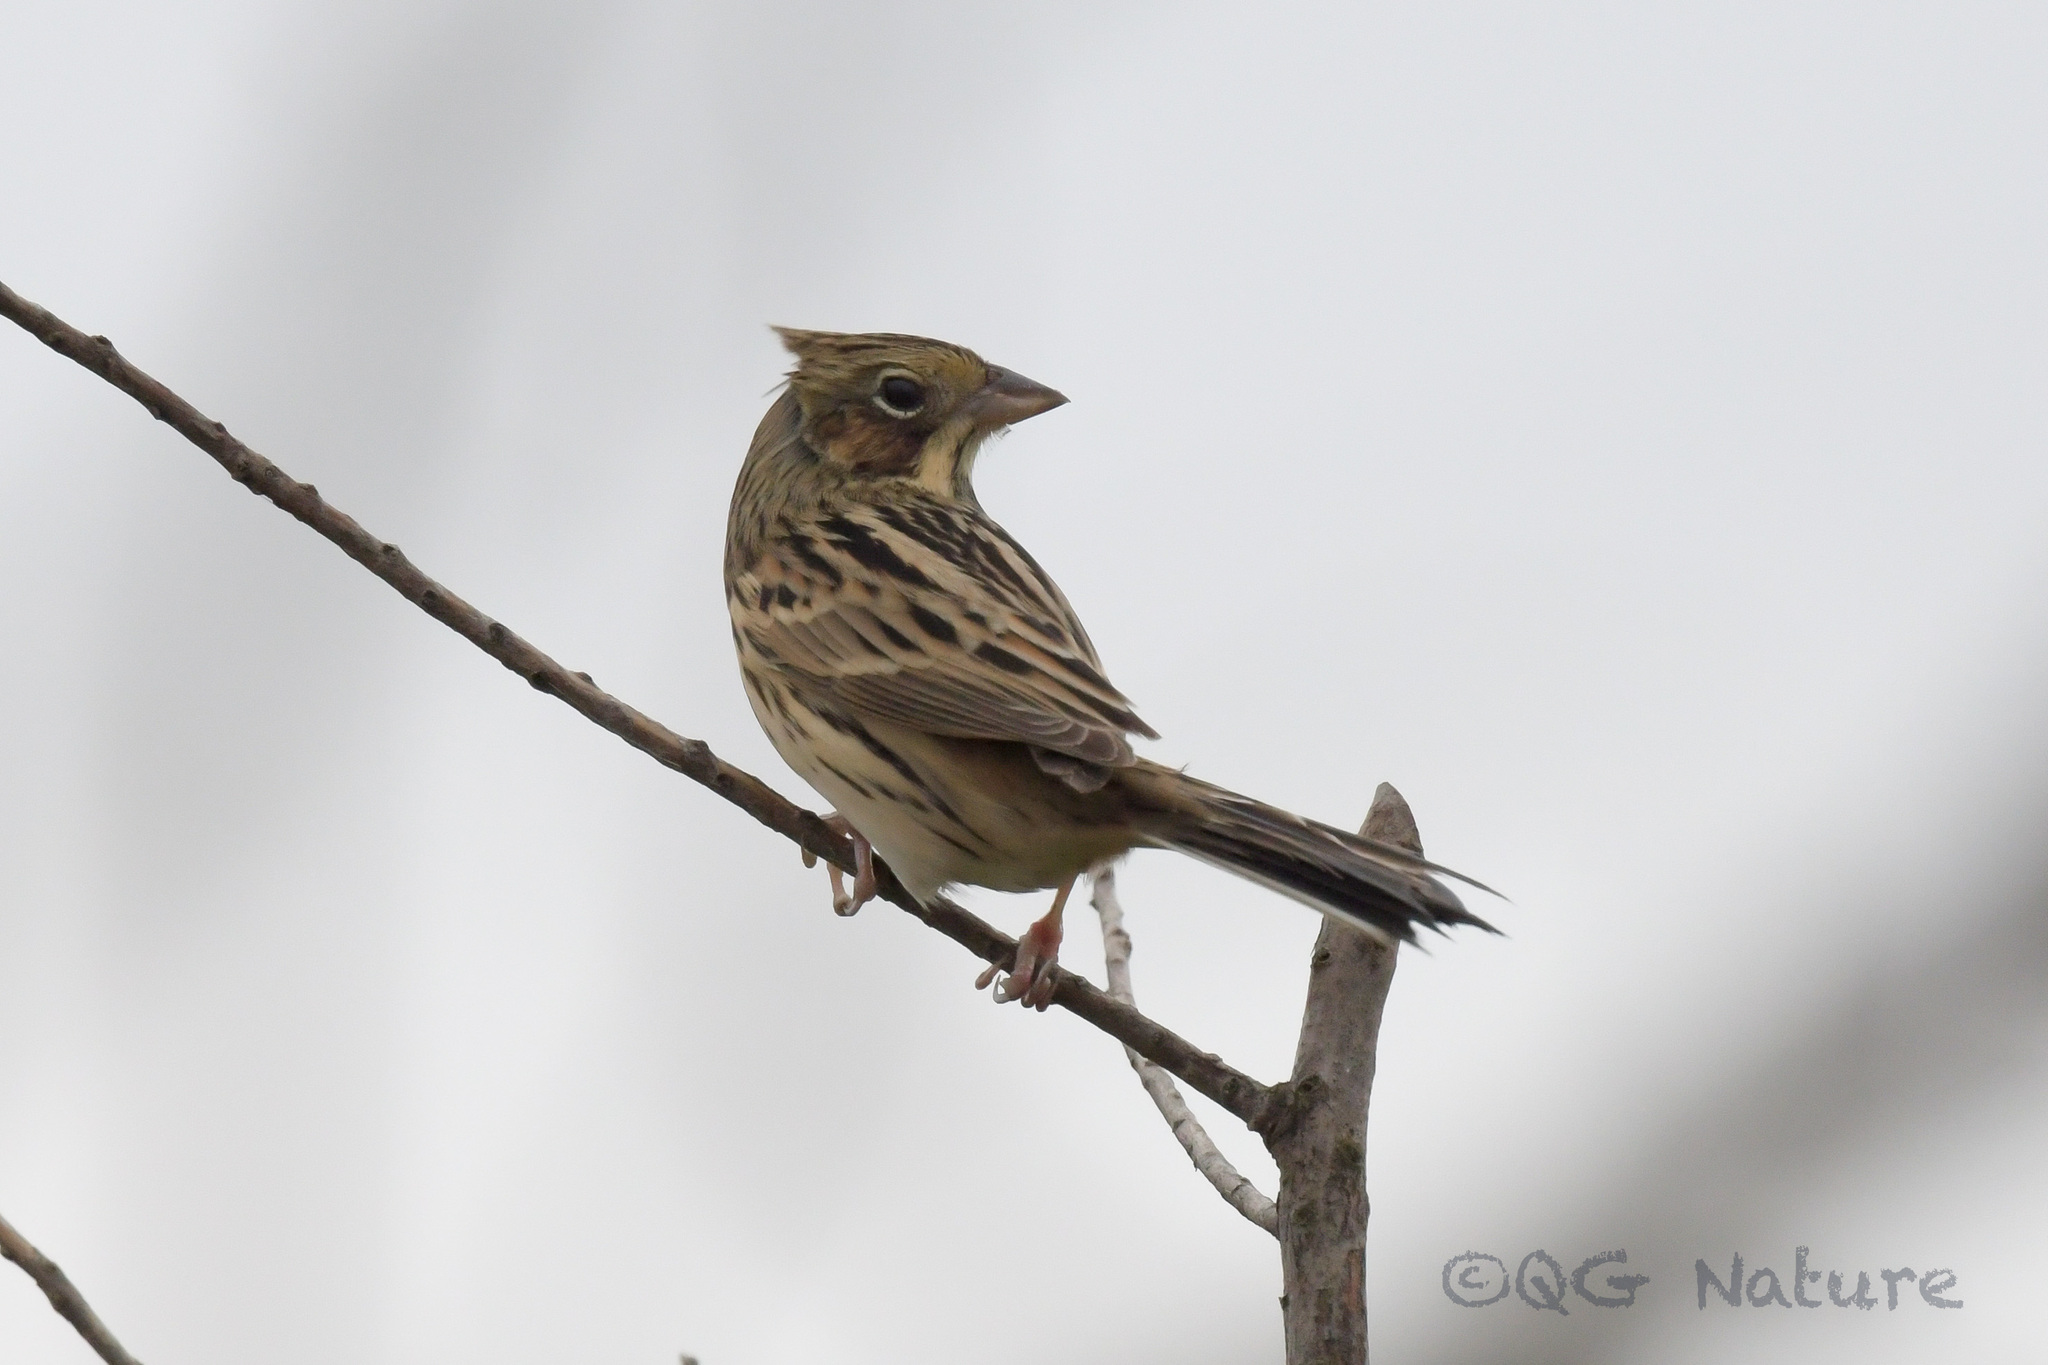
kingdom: Animalia
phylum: Chordata
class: Aves
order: Passeriformes
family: Emberizidae
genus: Emberiza
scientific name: Emberiza fucata
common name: Chestnut-eared bunting
